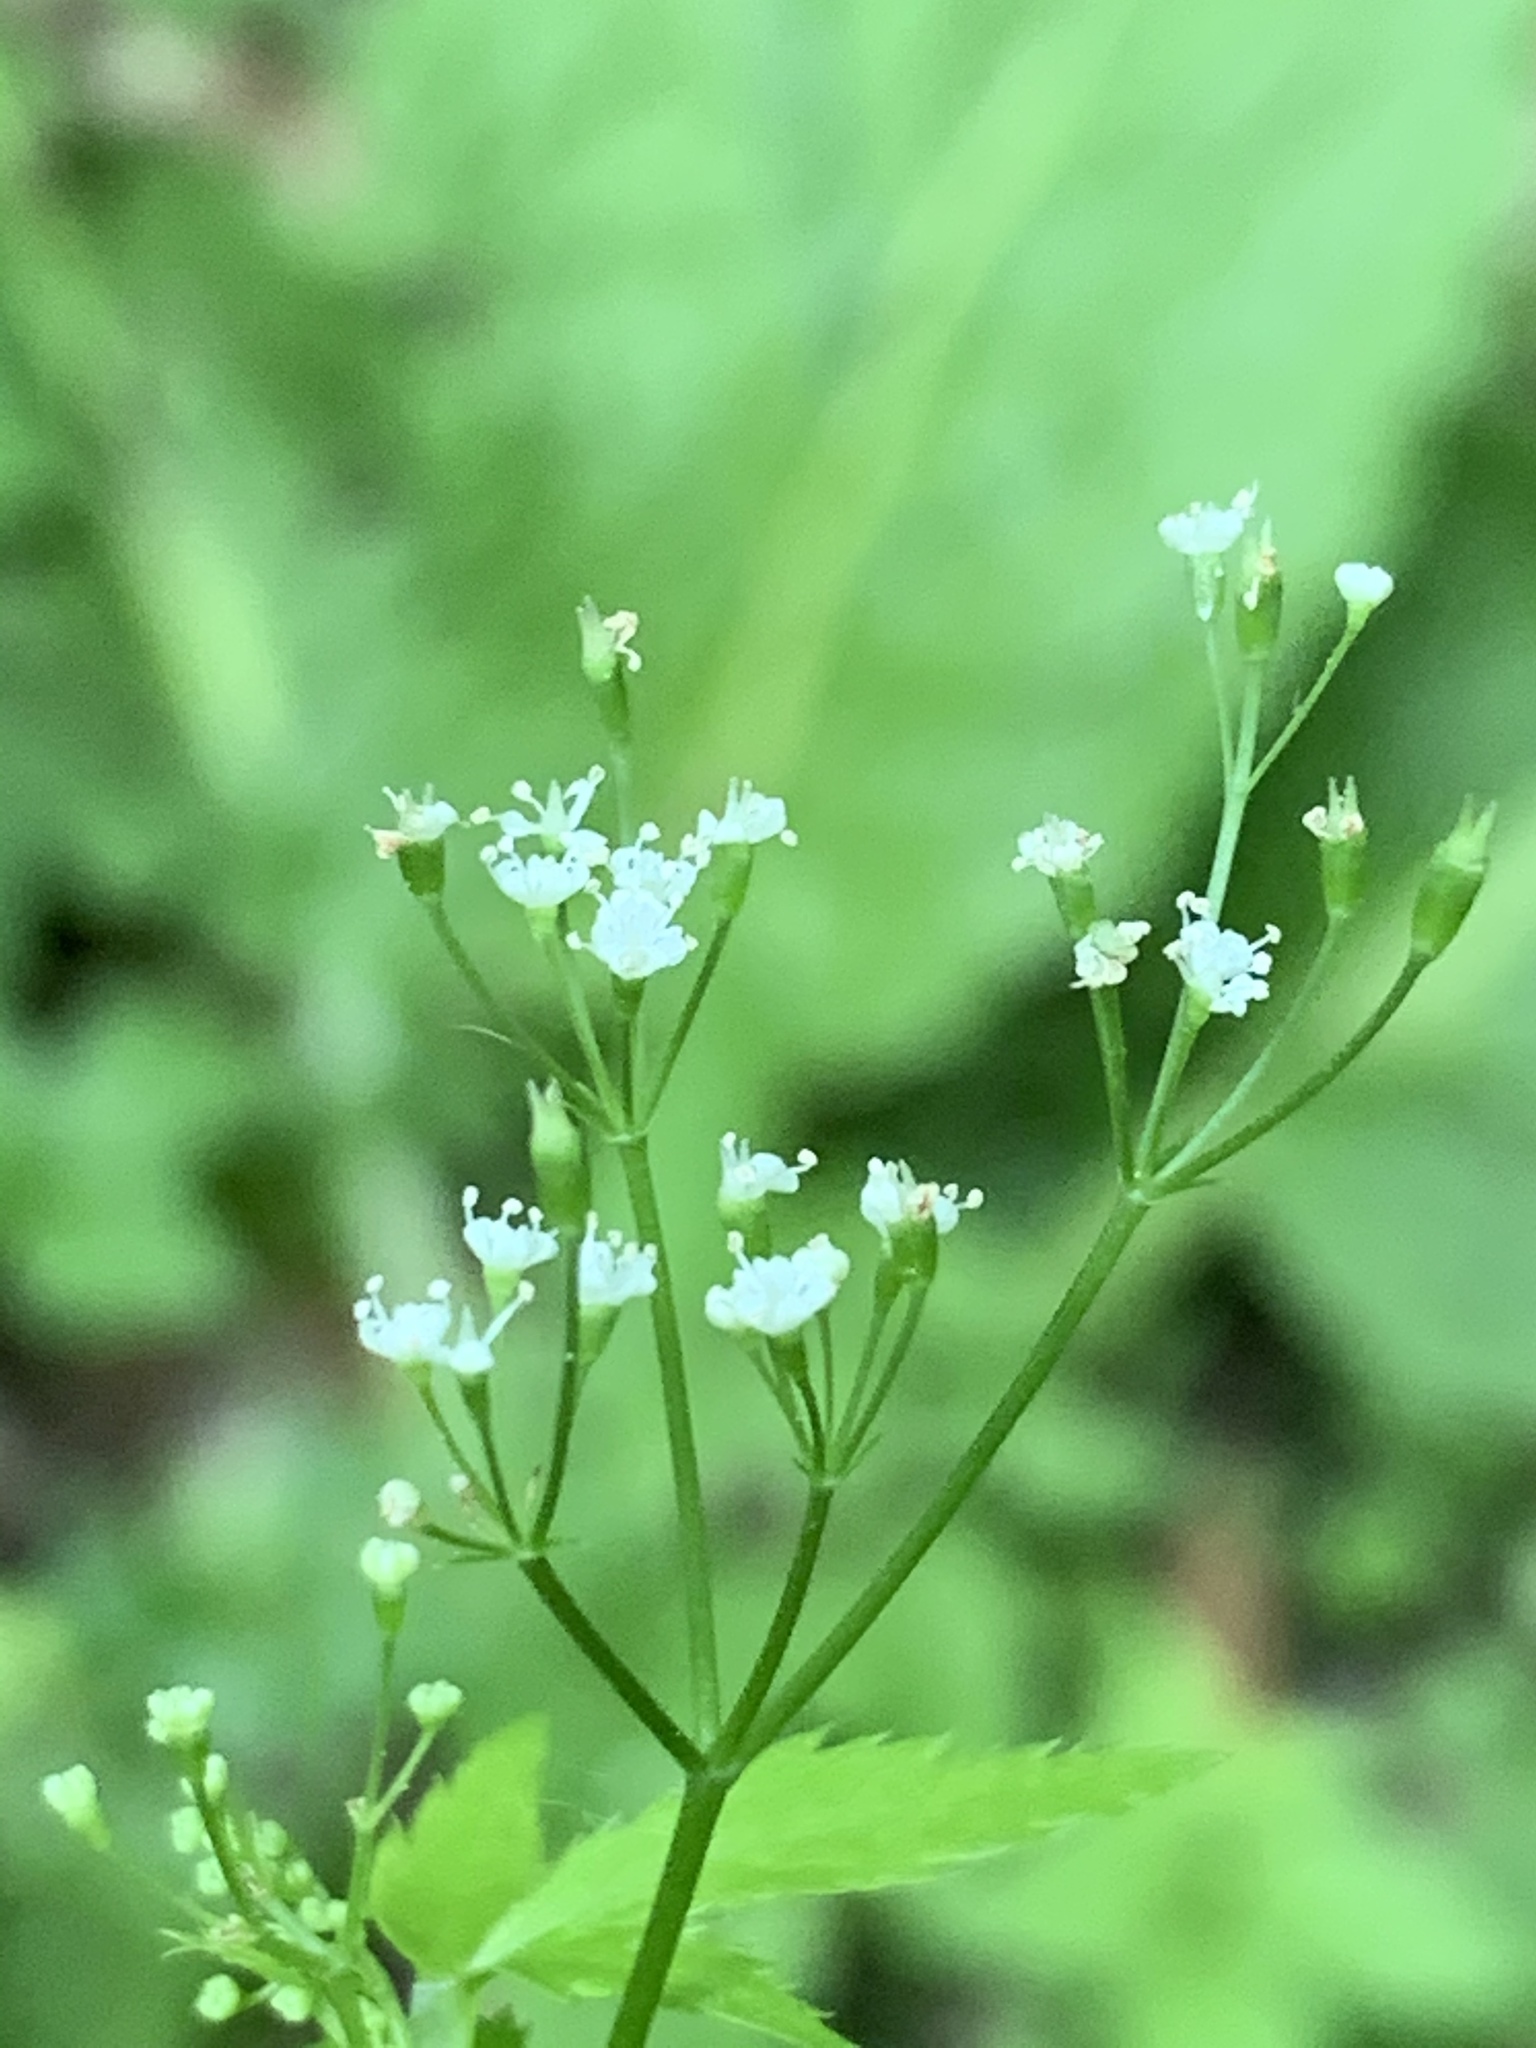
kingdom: Plantae
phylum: Tracheophyta
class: Magnoliopsida
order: Apiales
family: Apiaceae
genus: Cryptotaenia
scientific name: Cryptotaenia canadensis
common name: Honewort
